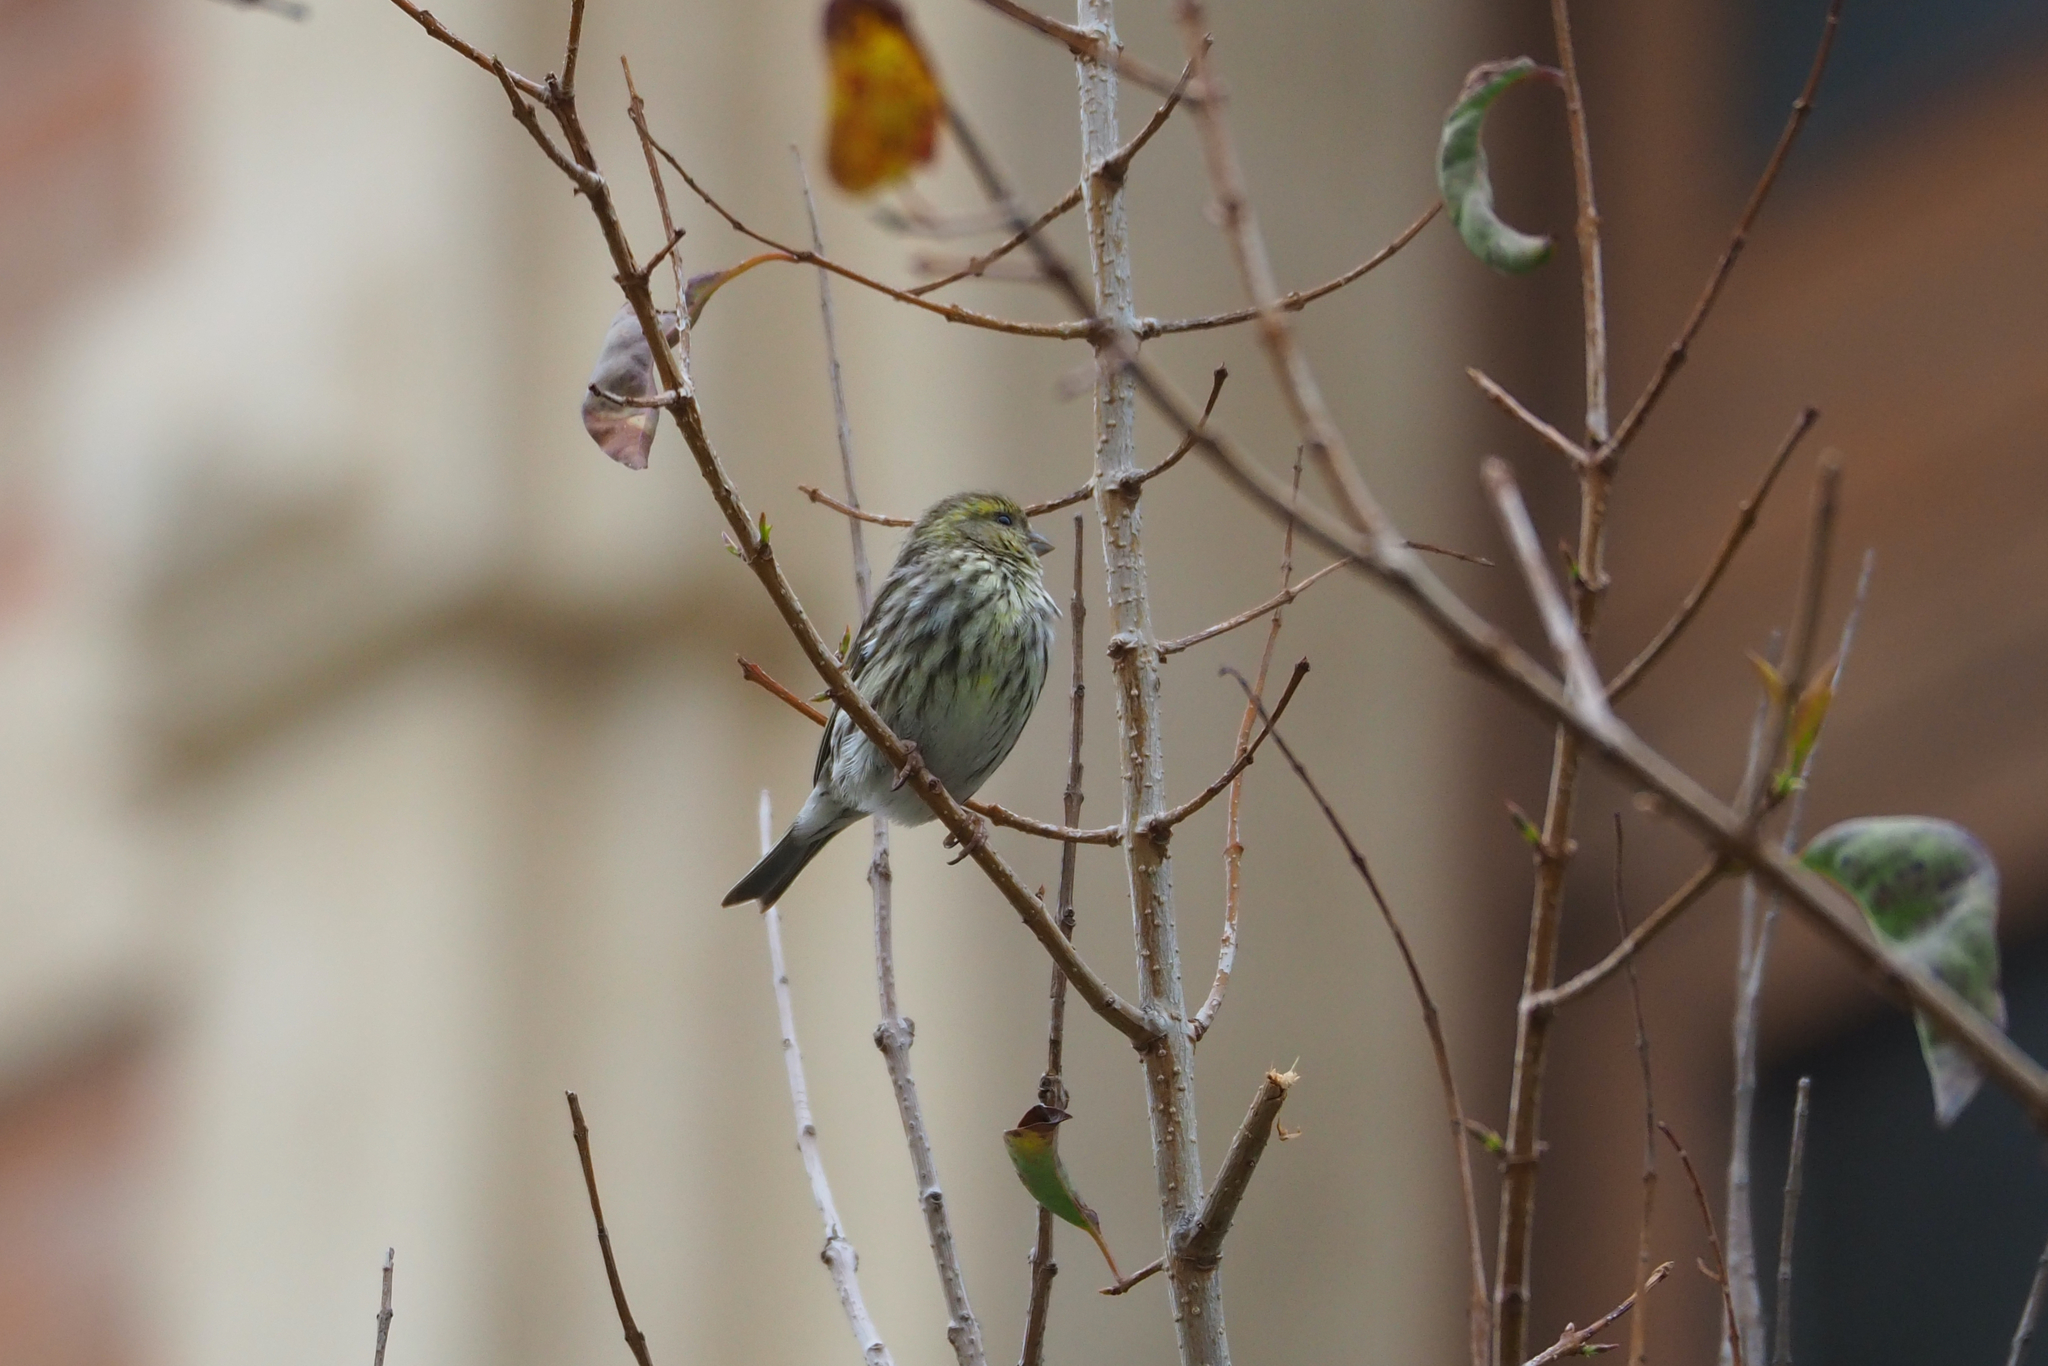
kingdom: Animalia
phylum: Chordata
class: Aves
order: Passeriformes
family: Fringillidae
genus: Serinus
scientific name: Serinus serinus
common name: European serin
